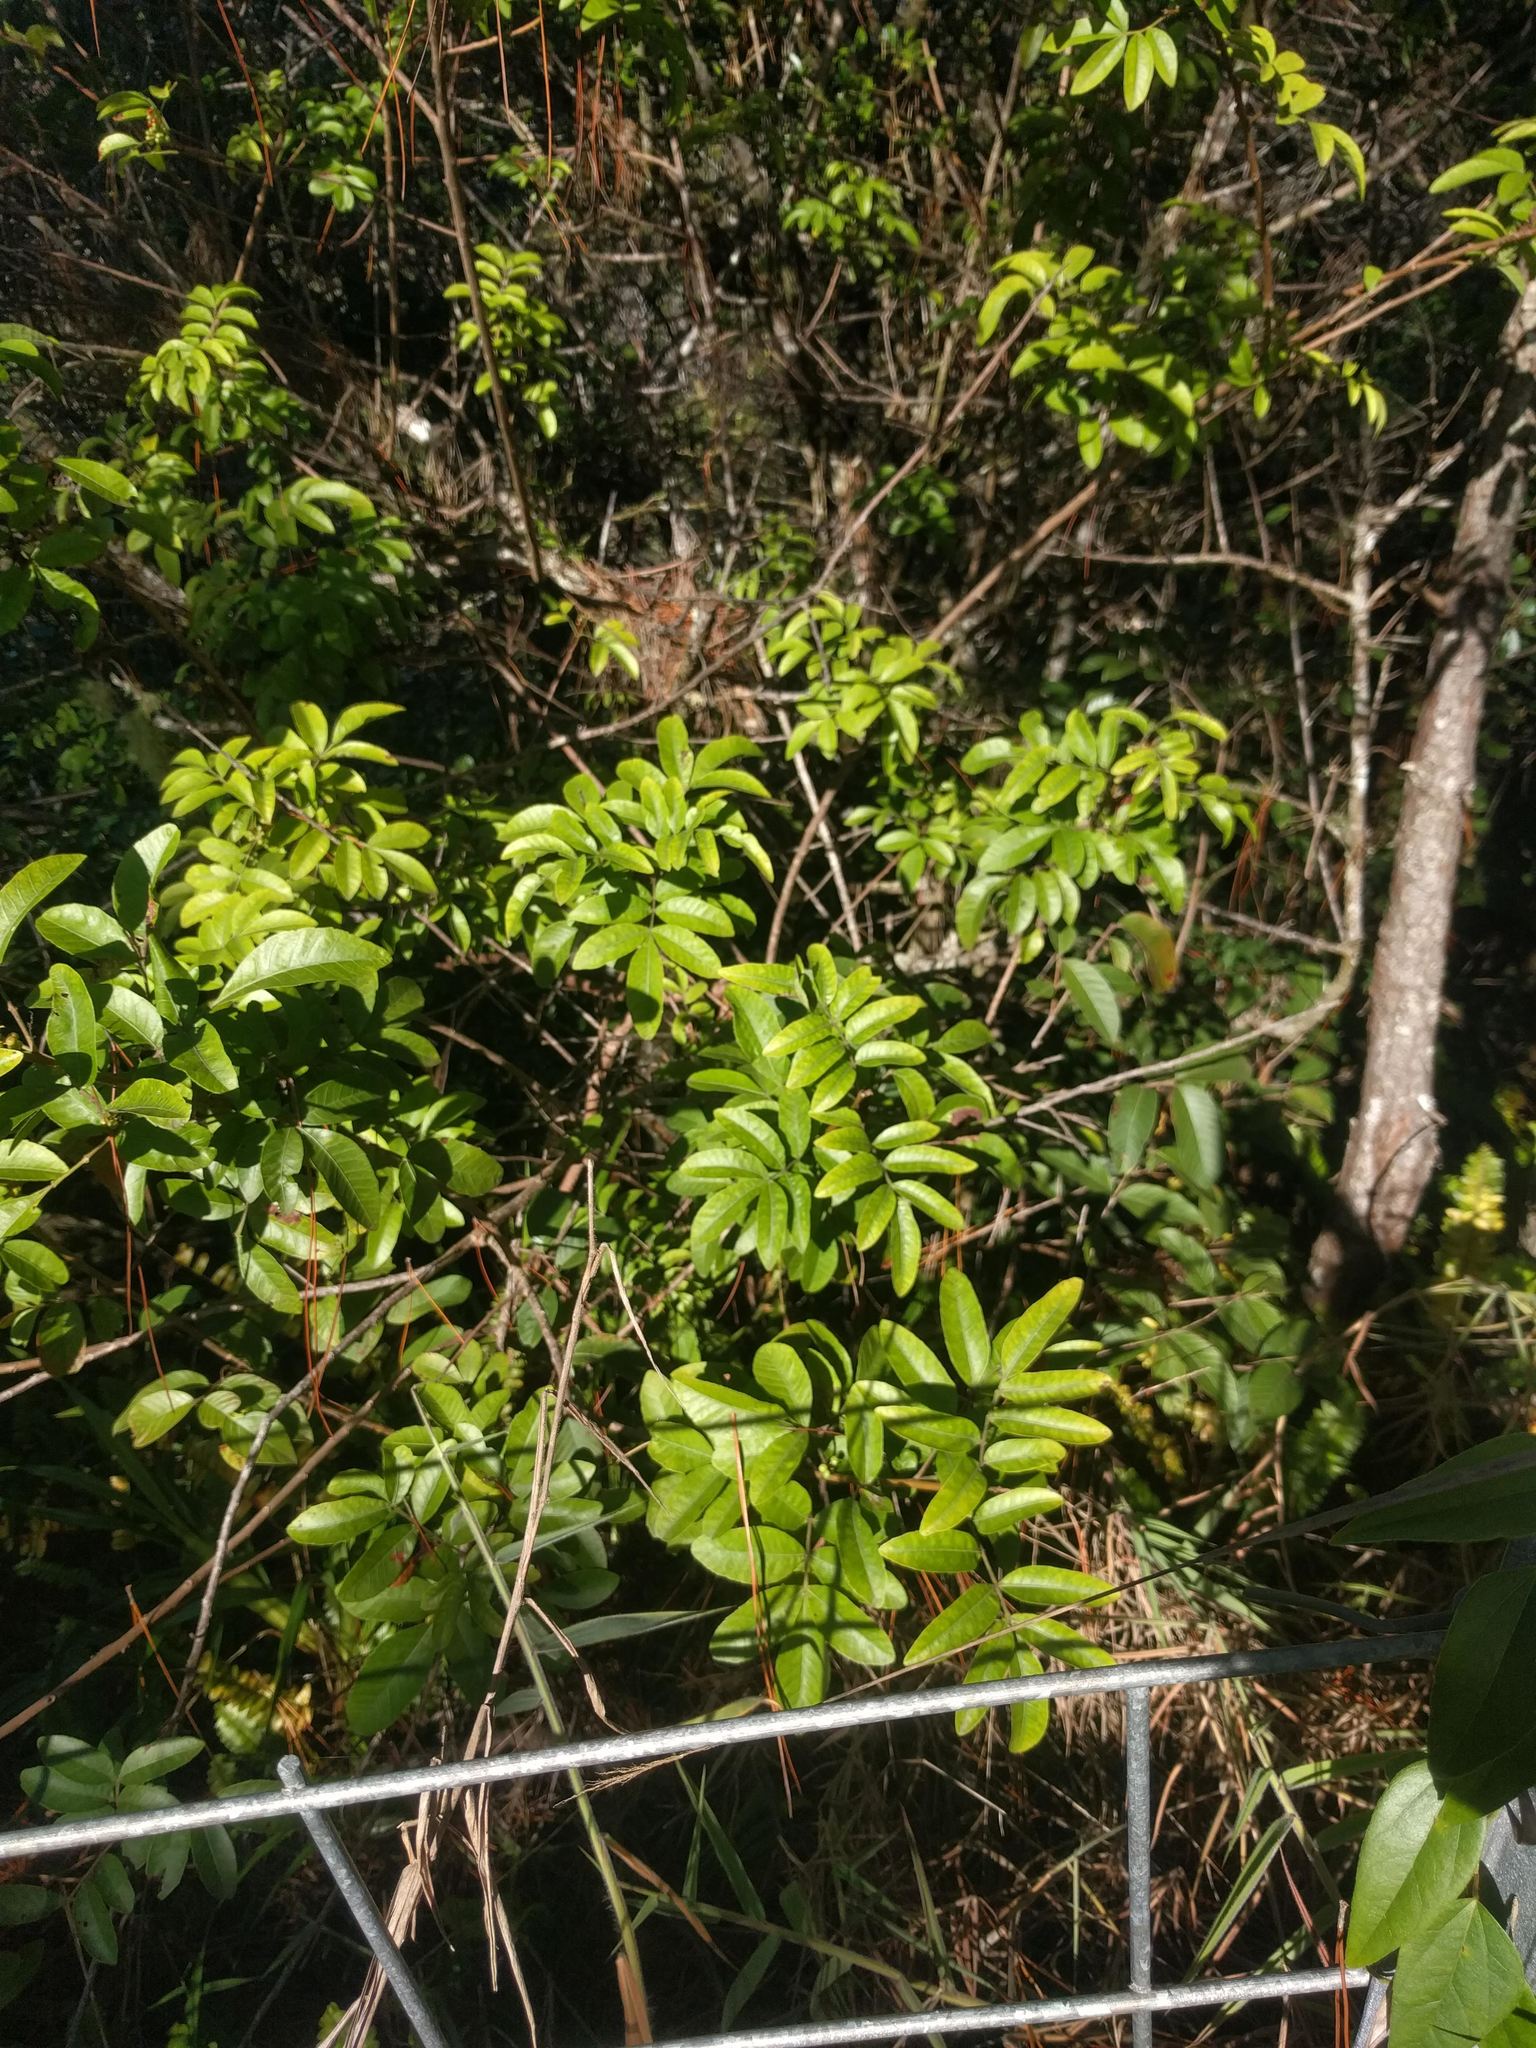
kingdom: Plantae
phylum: Tracheophyta
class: Magnoliopsida
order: Sapindales
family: Anacardiaceae
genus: Schinus
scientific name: Schinus terebinthifolia
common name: Brazilian peppertree
